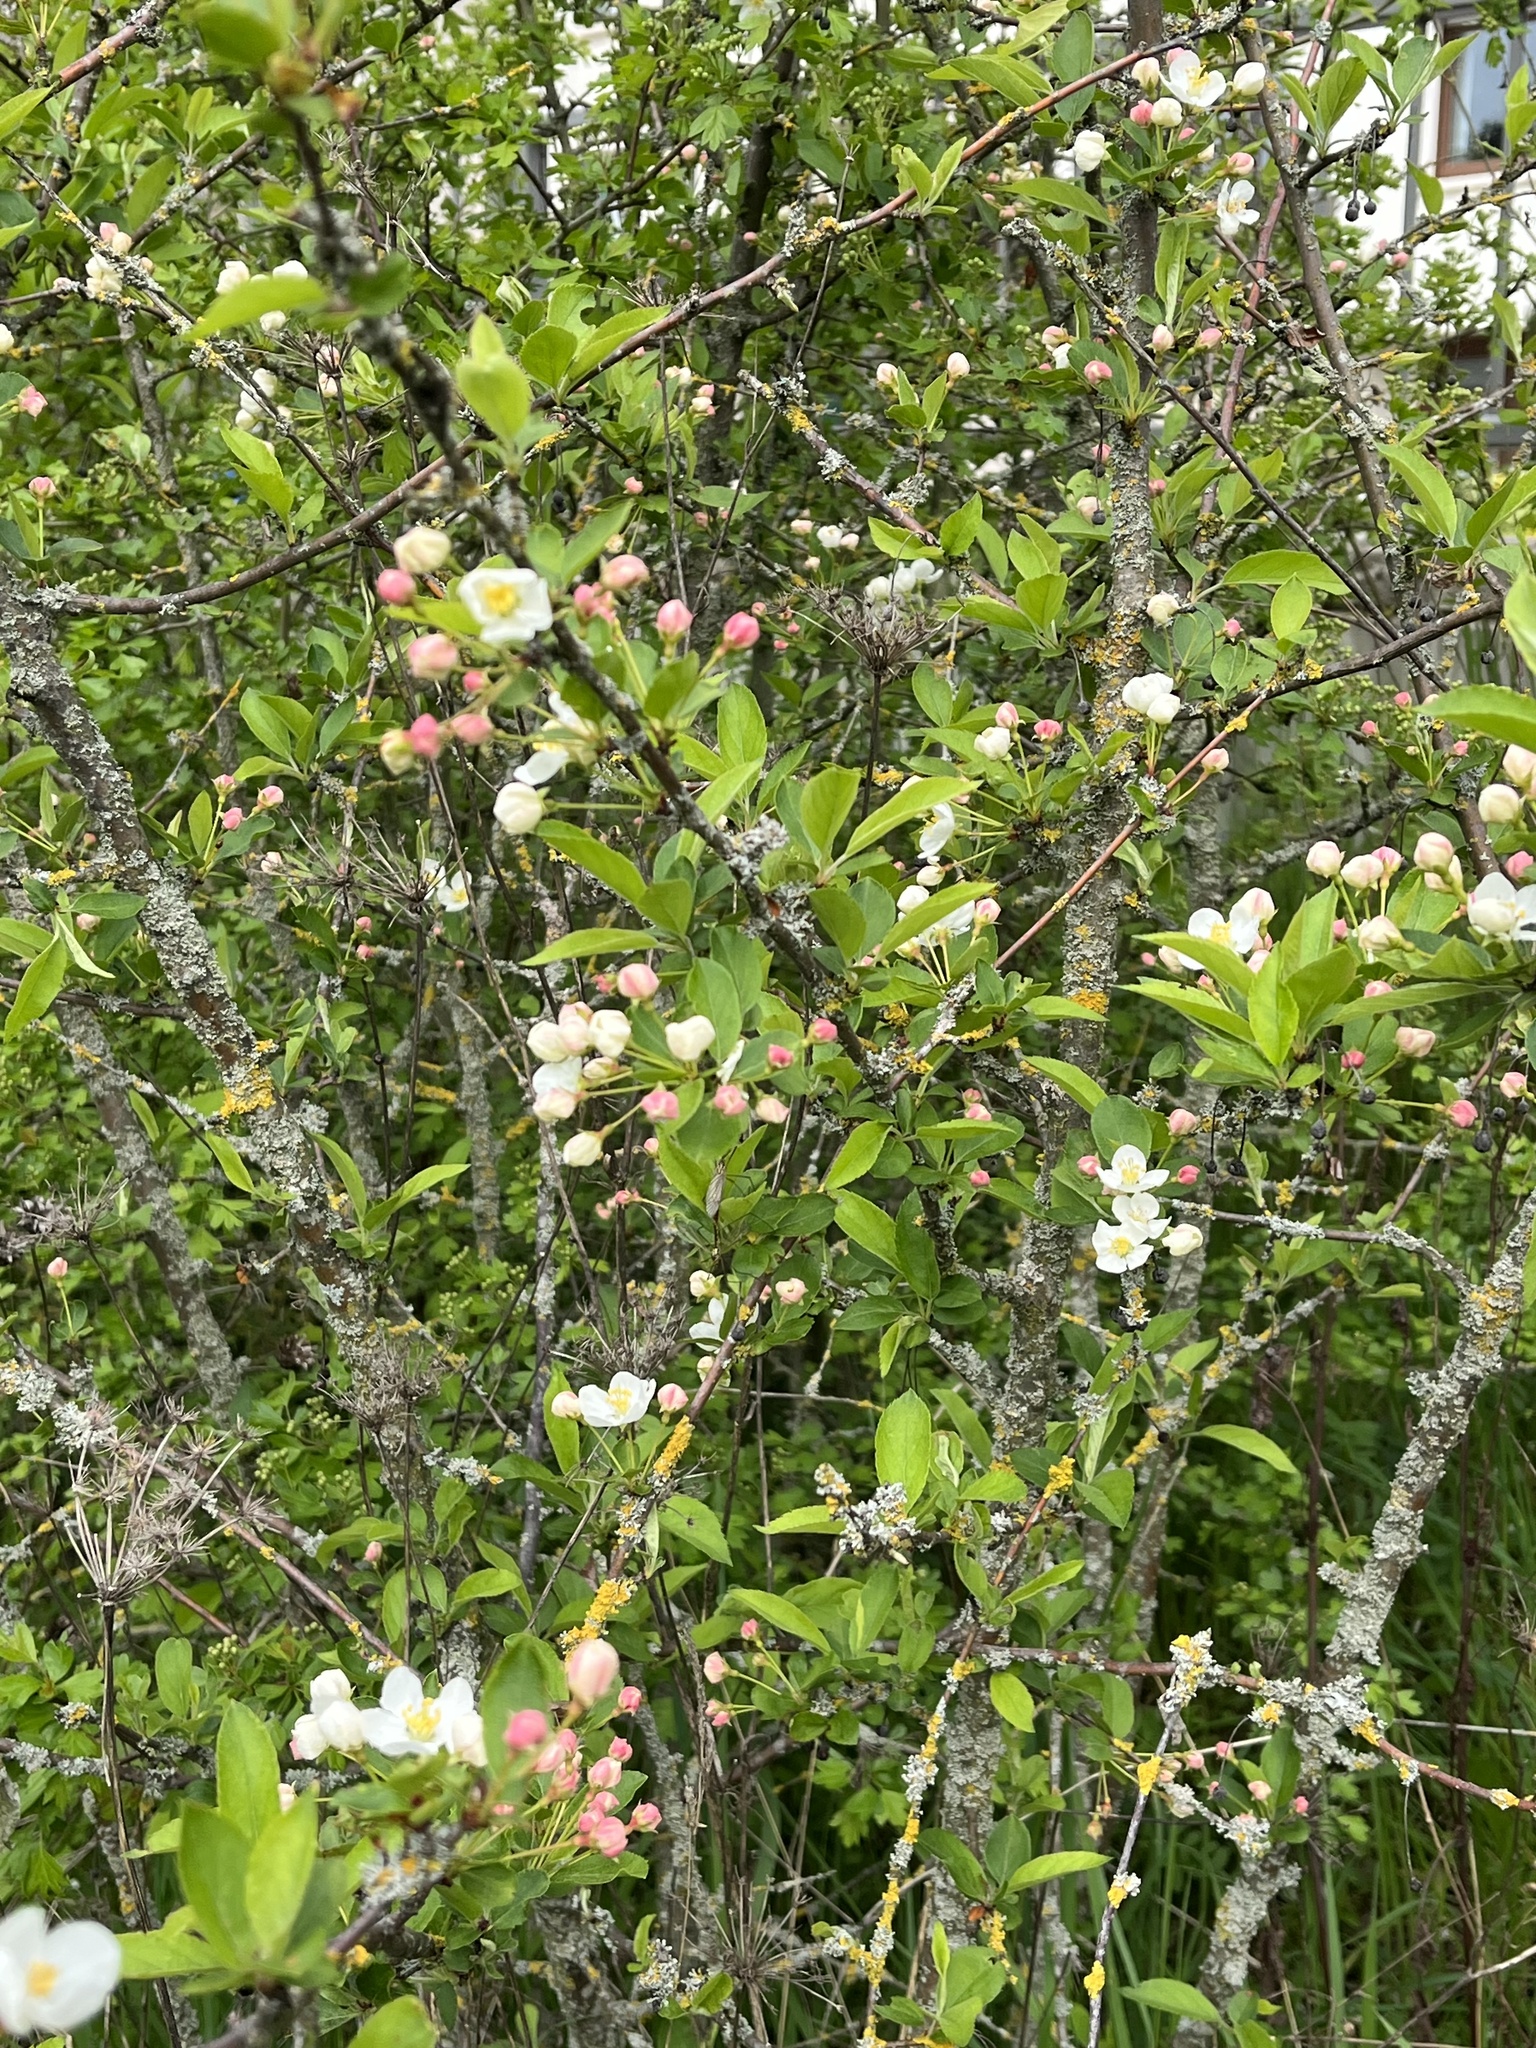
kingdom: Plantae
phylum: Tracheophyta
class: Magnoliopsida
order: Rosales
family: Rosaceae
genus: Malus
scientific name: Malus domestica
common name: Apple
